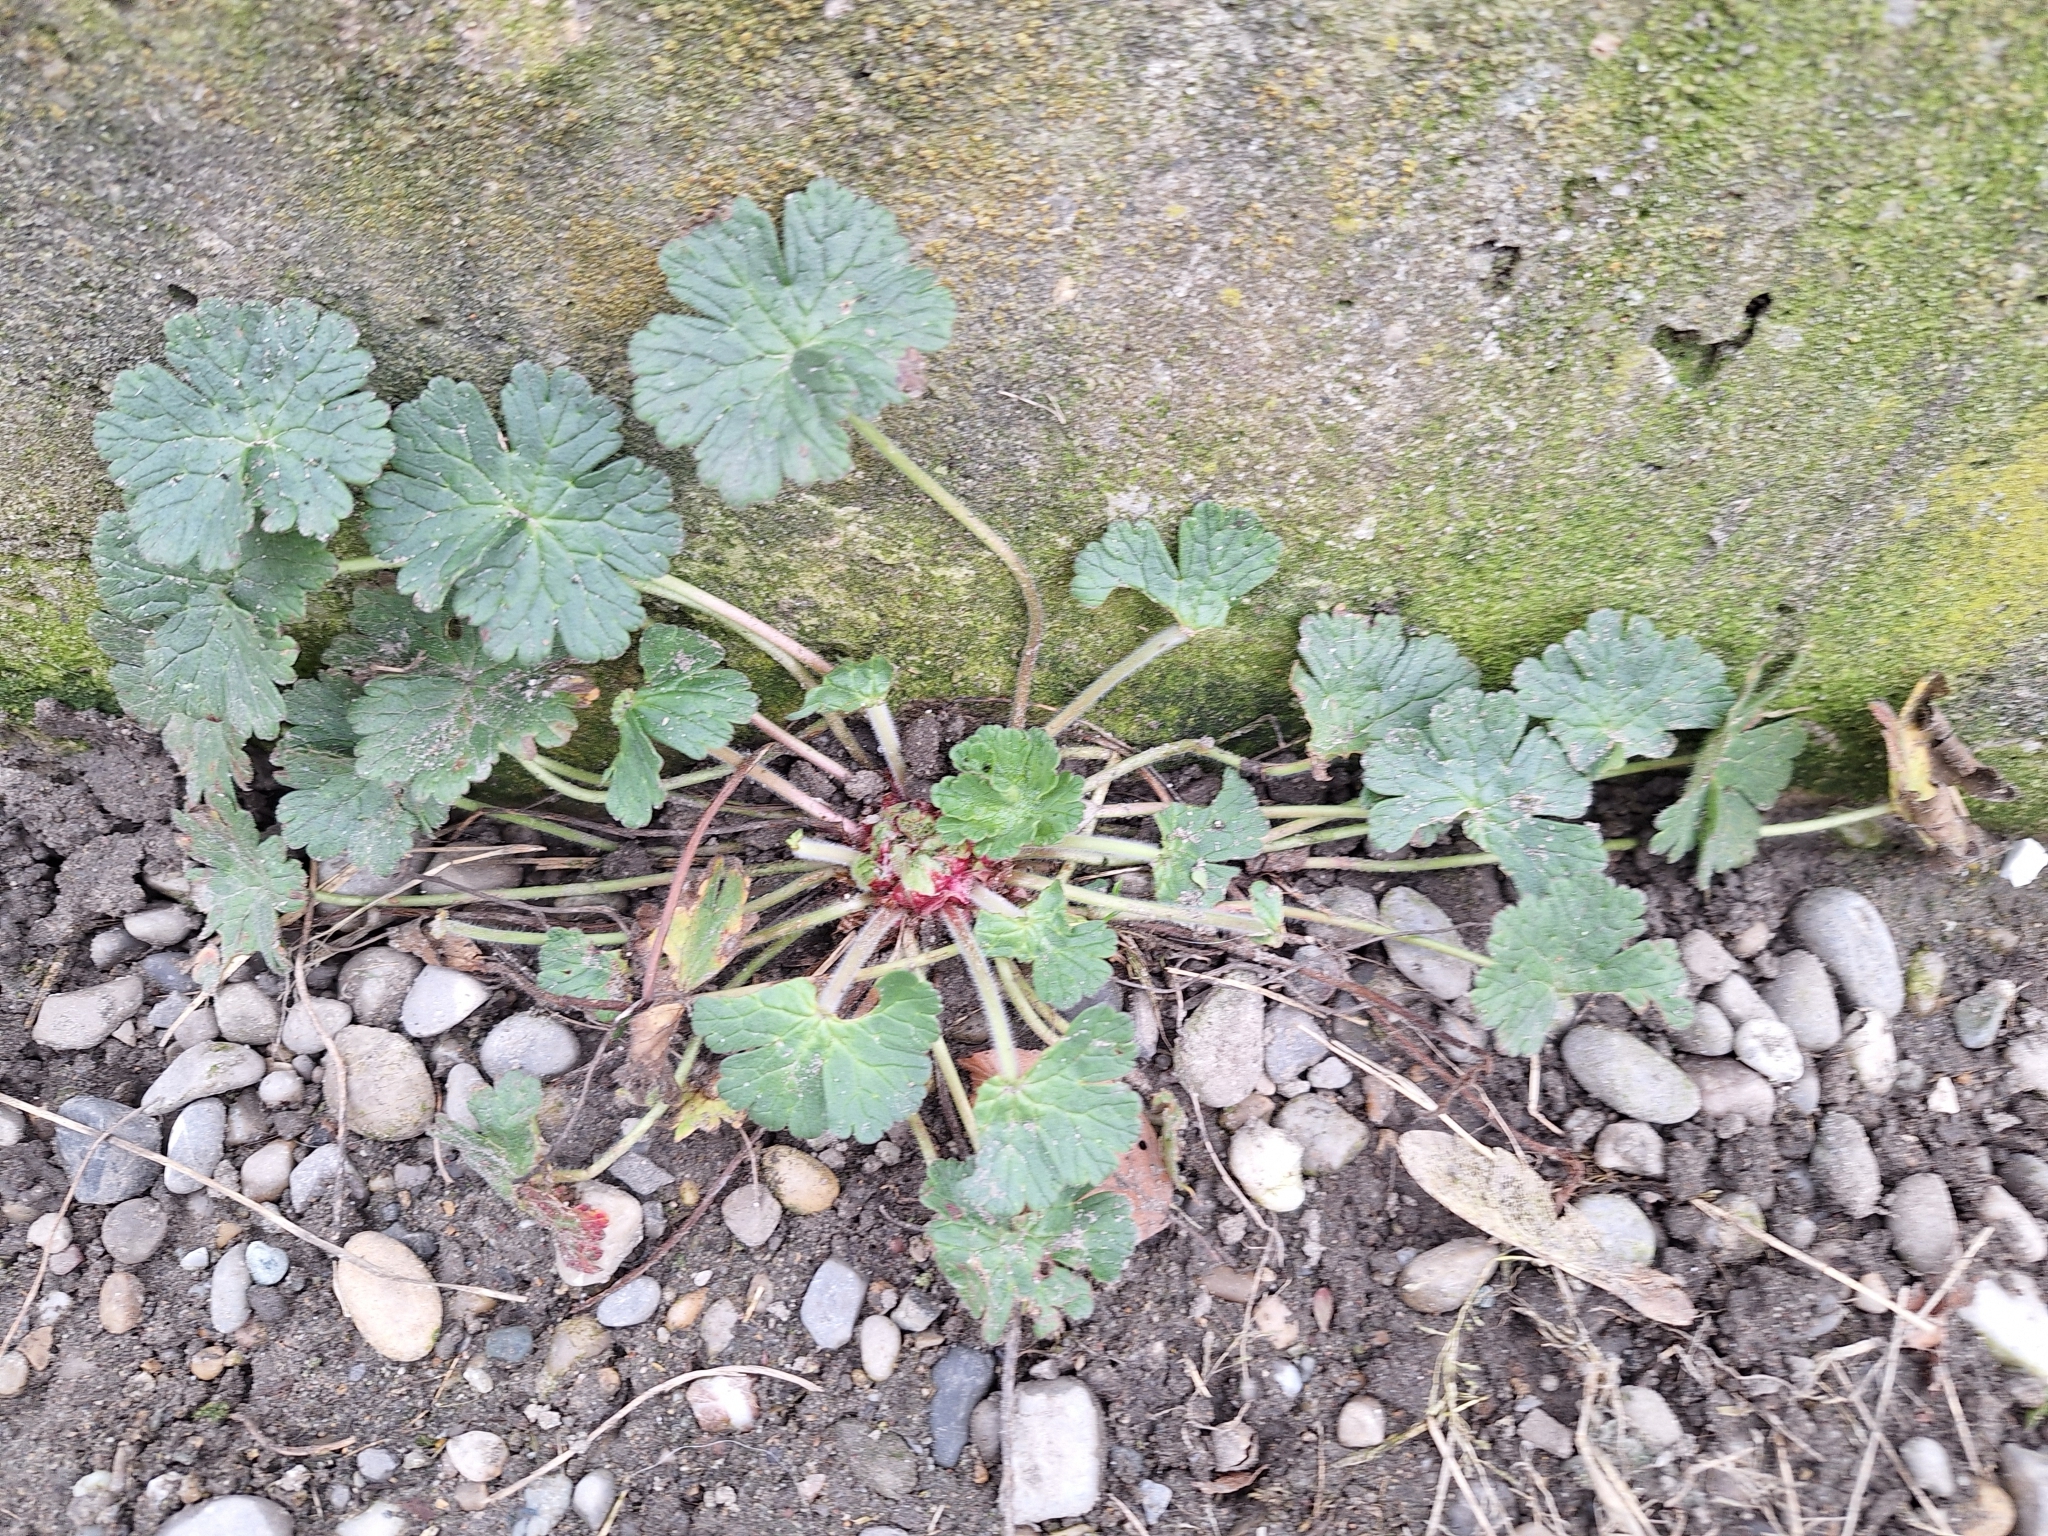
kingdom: Plantae
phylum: Tracheophyta
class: Magnoliopsida
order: Geraniales
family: Geraniaceae
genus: Geranium
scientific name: Geranium molle
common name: Dove's-foot crane's-bill
